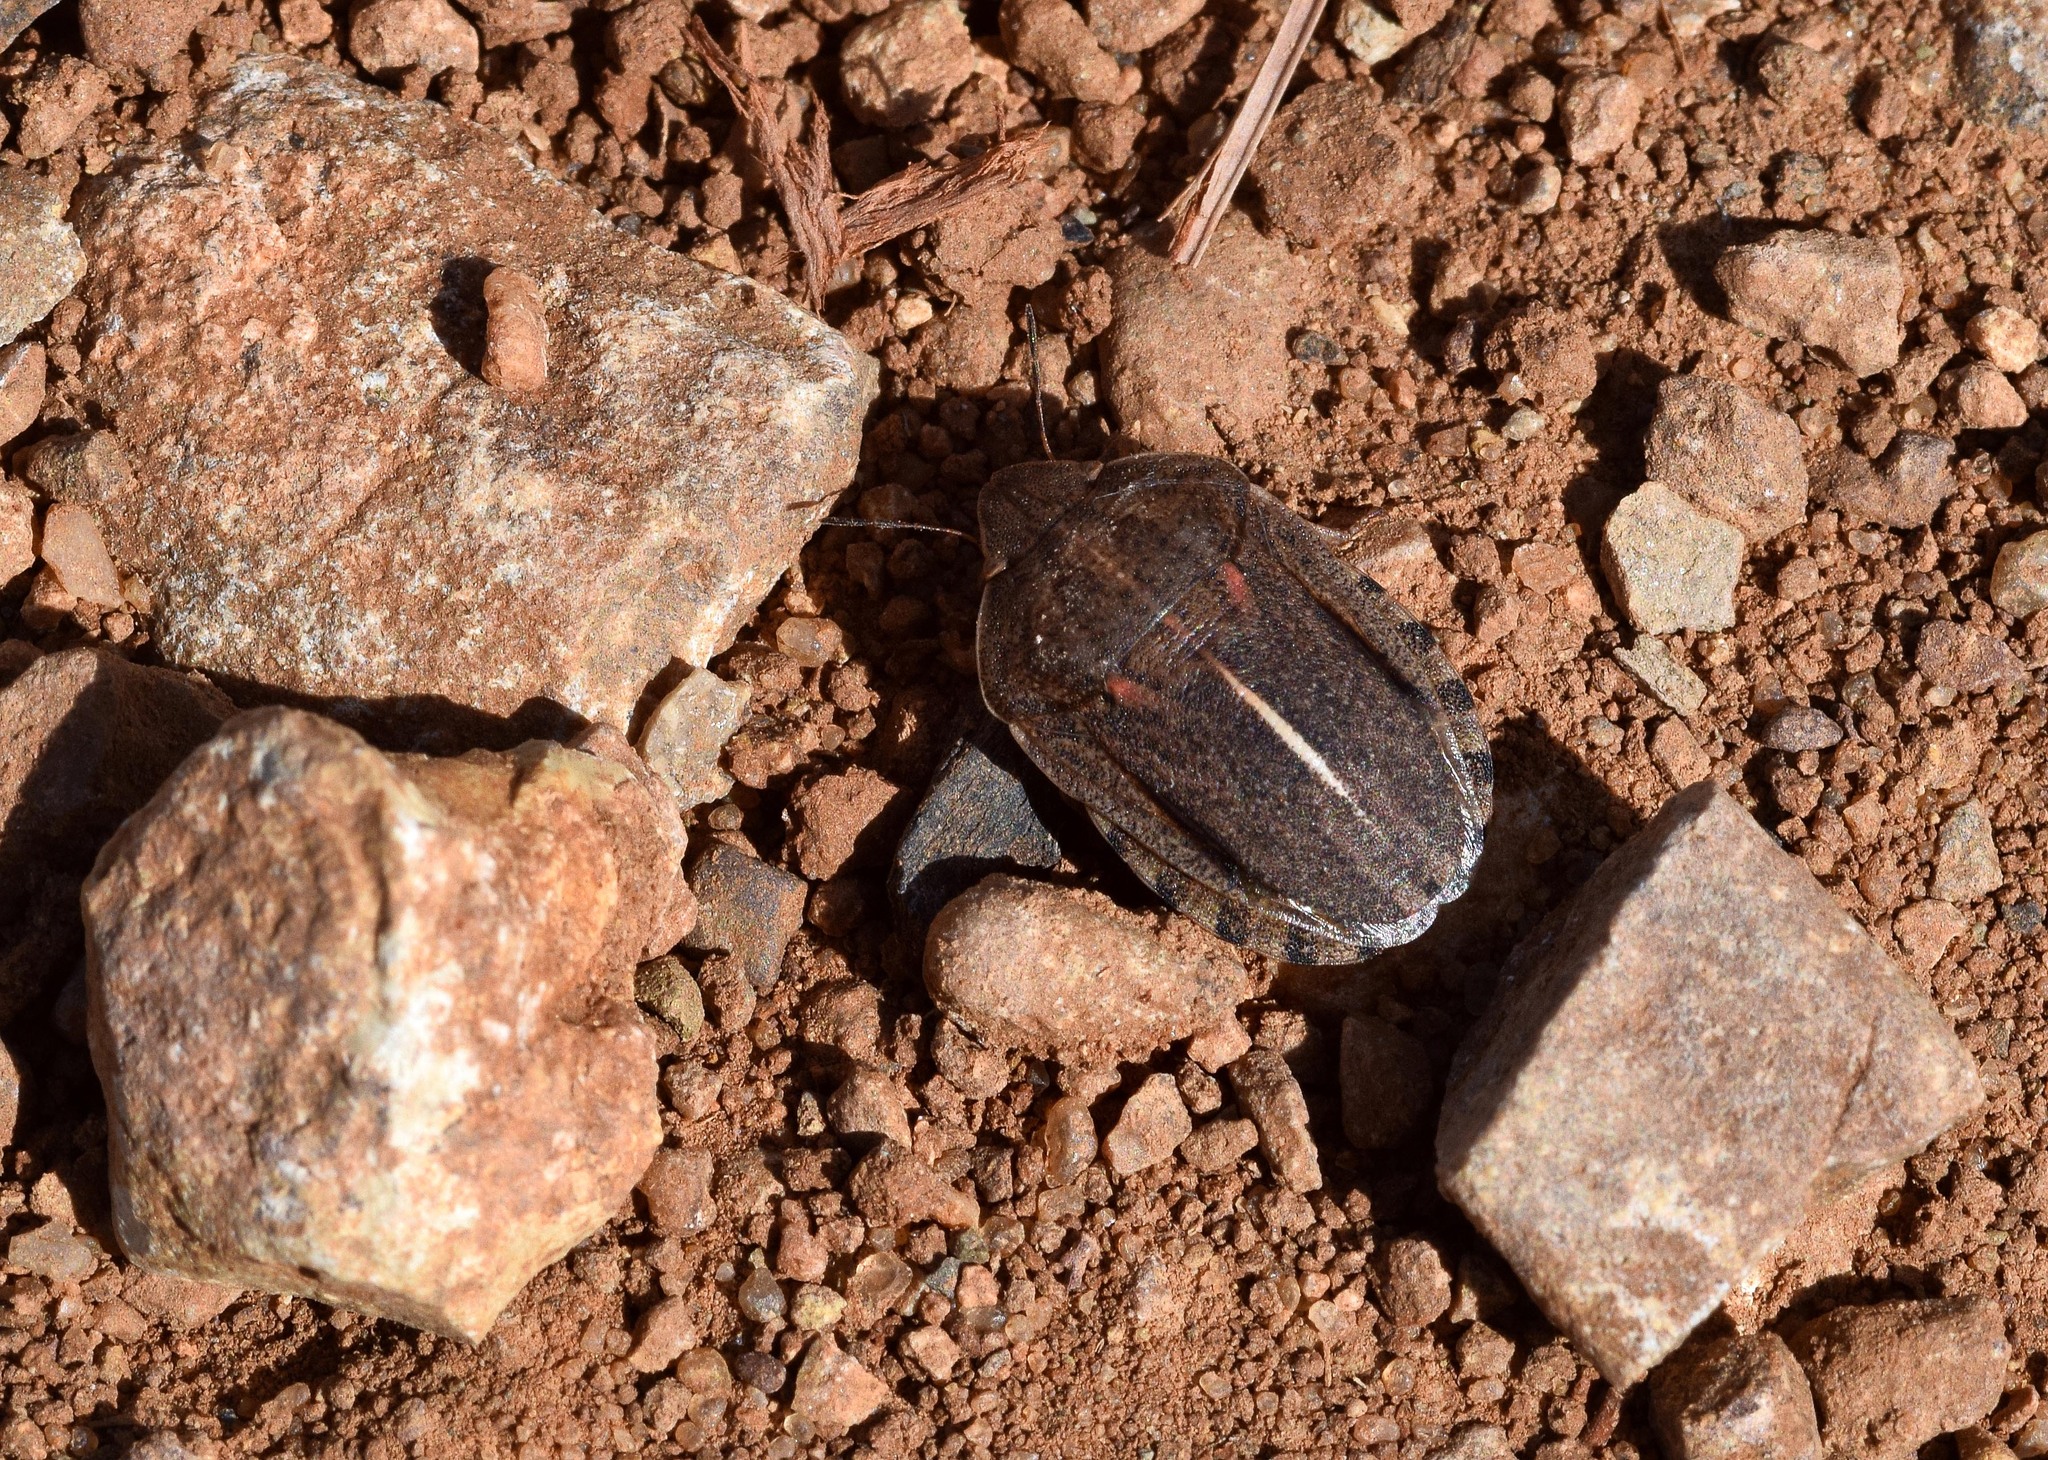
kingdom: Animalia
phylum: Arthropoda
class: Insecta
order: Hemiptera
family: Scutelleridae
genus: Eurygaster
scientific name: Eurygaster austriaca
